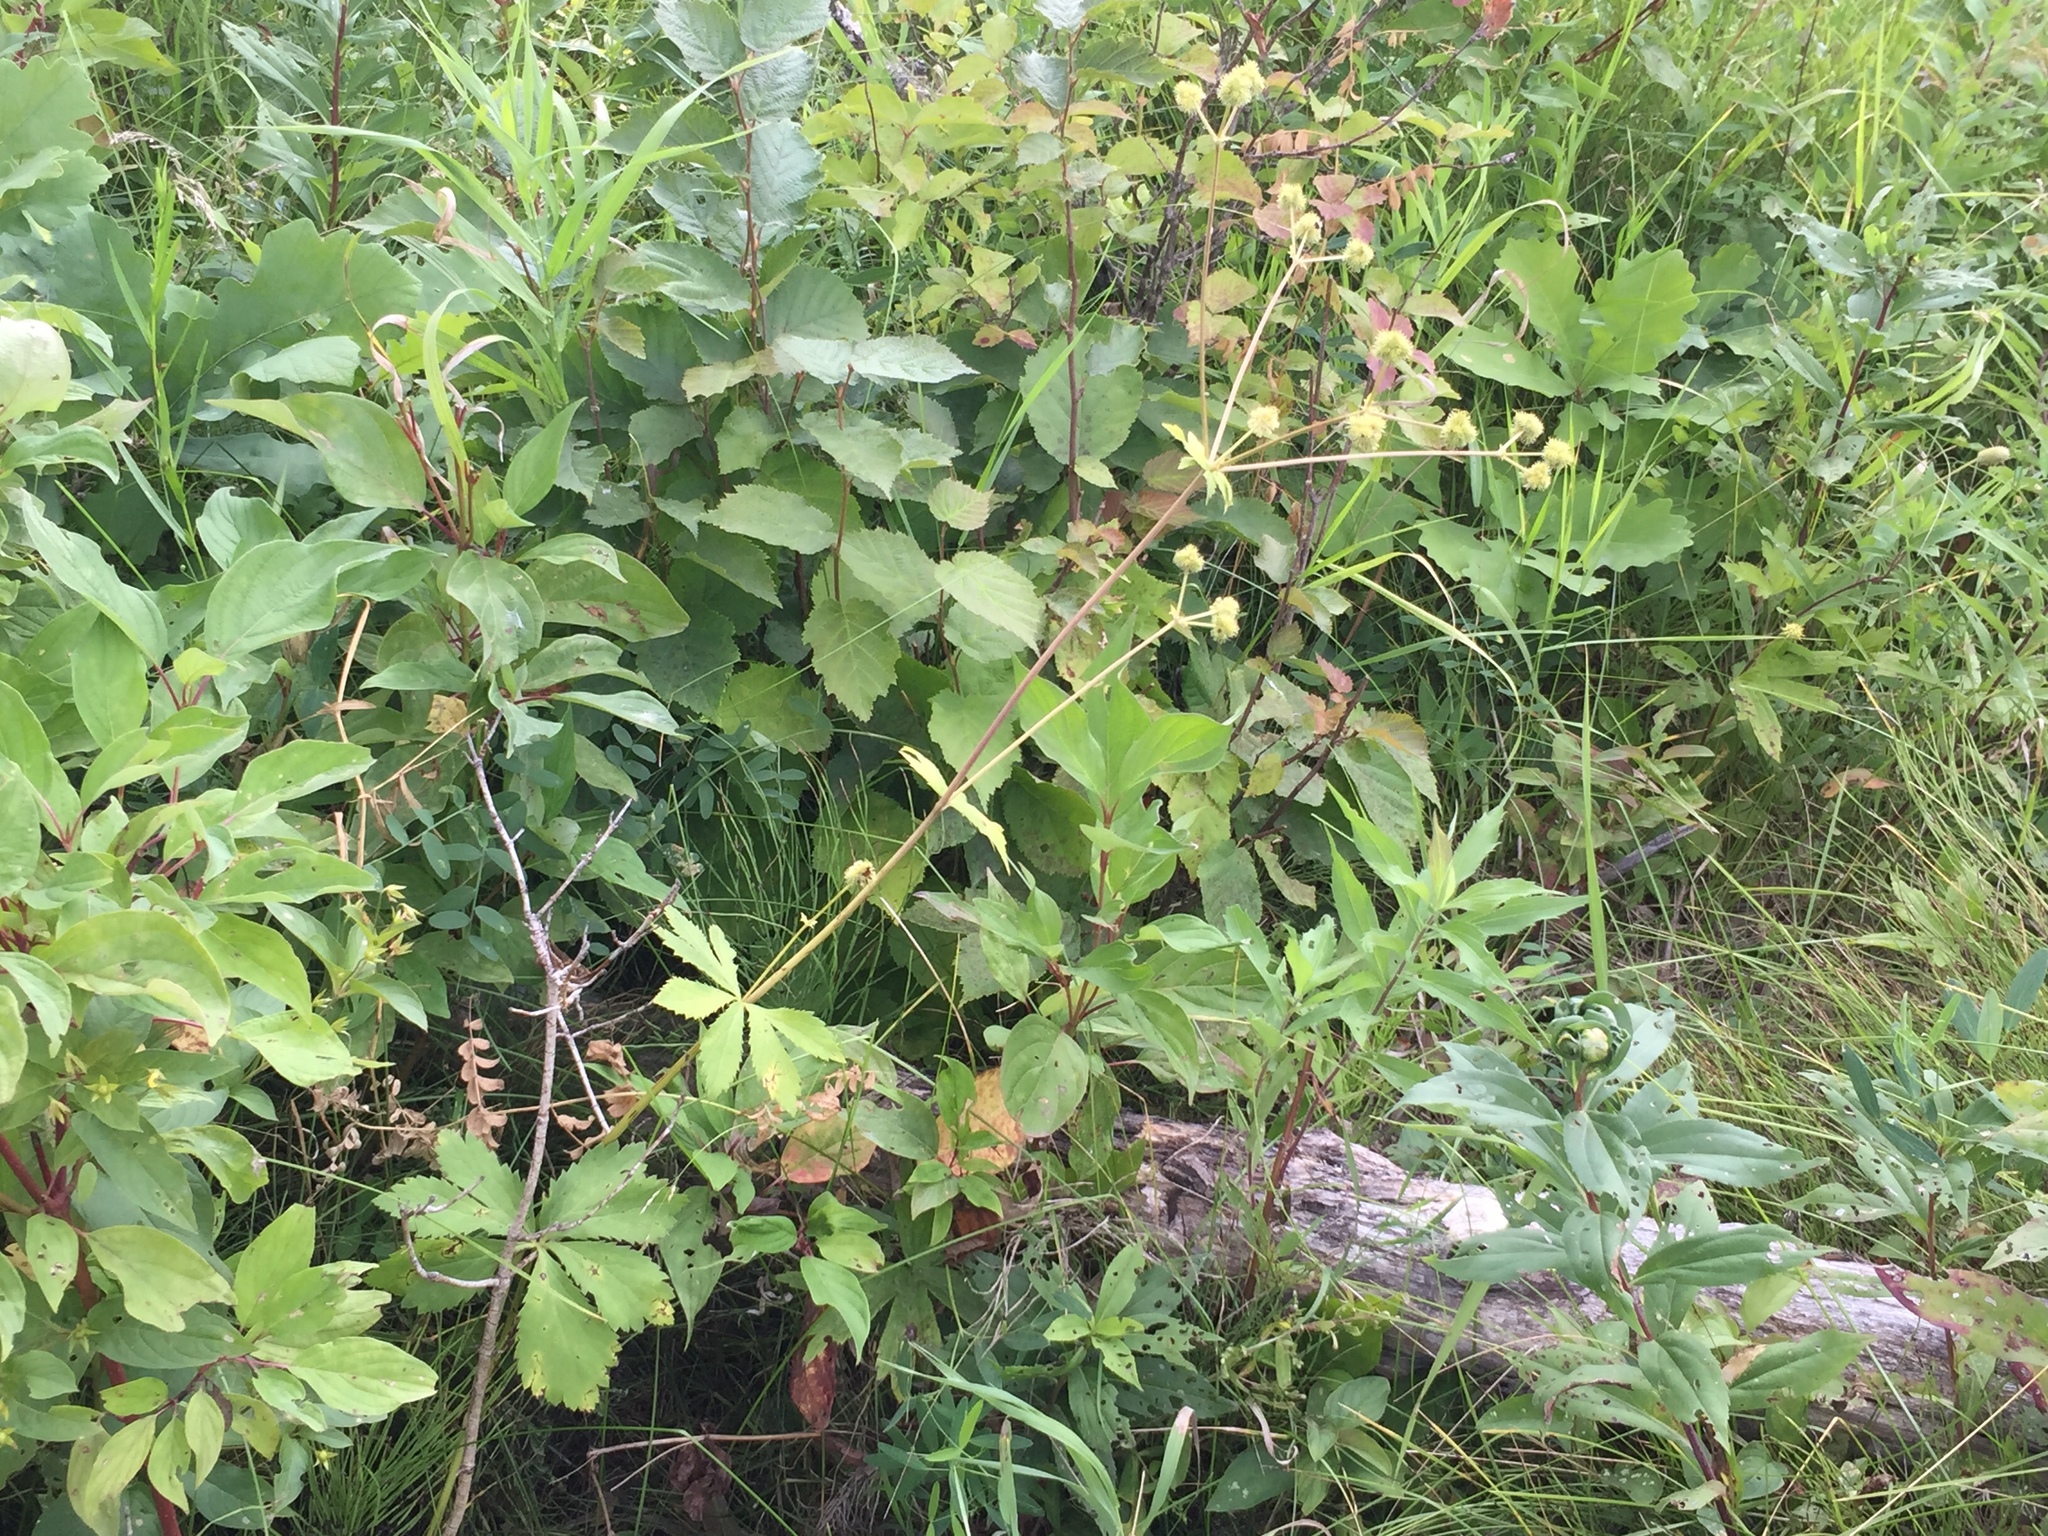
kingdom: Plantae
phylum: Tracheophyta
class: Magnoliopsida
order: Apiales
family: Apiaceae
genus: Sanicula
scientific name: Sanicula marilandica
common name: Black snakeroot
